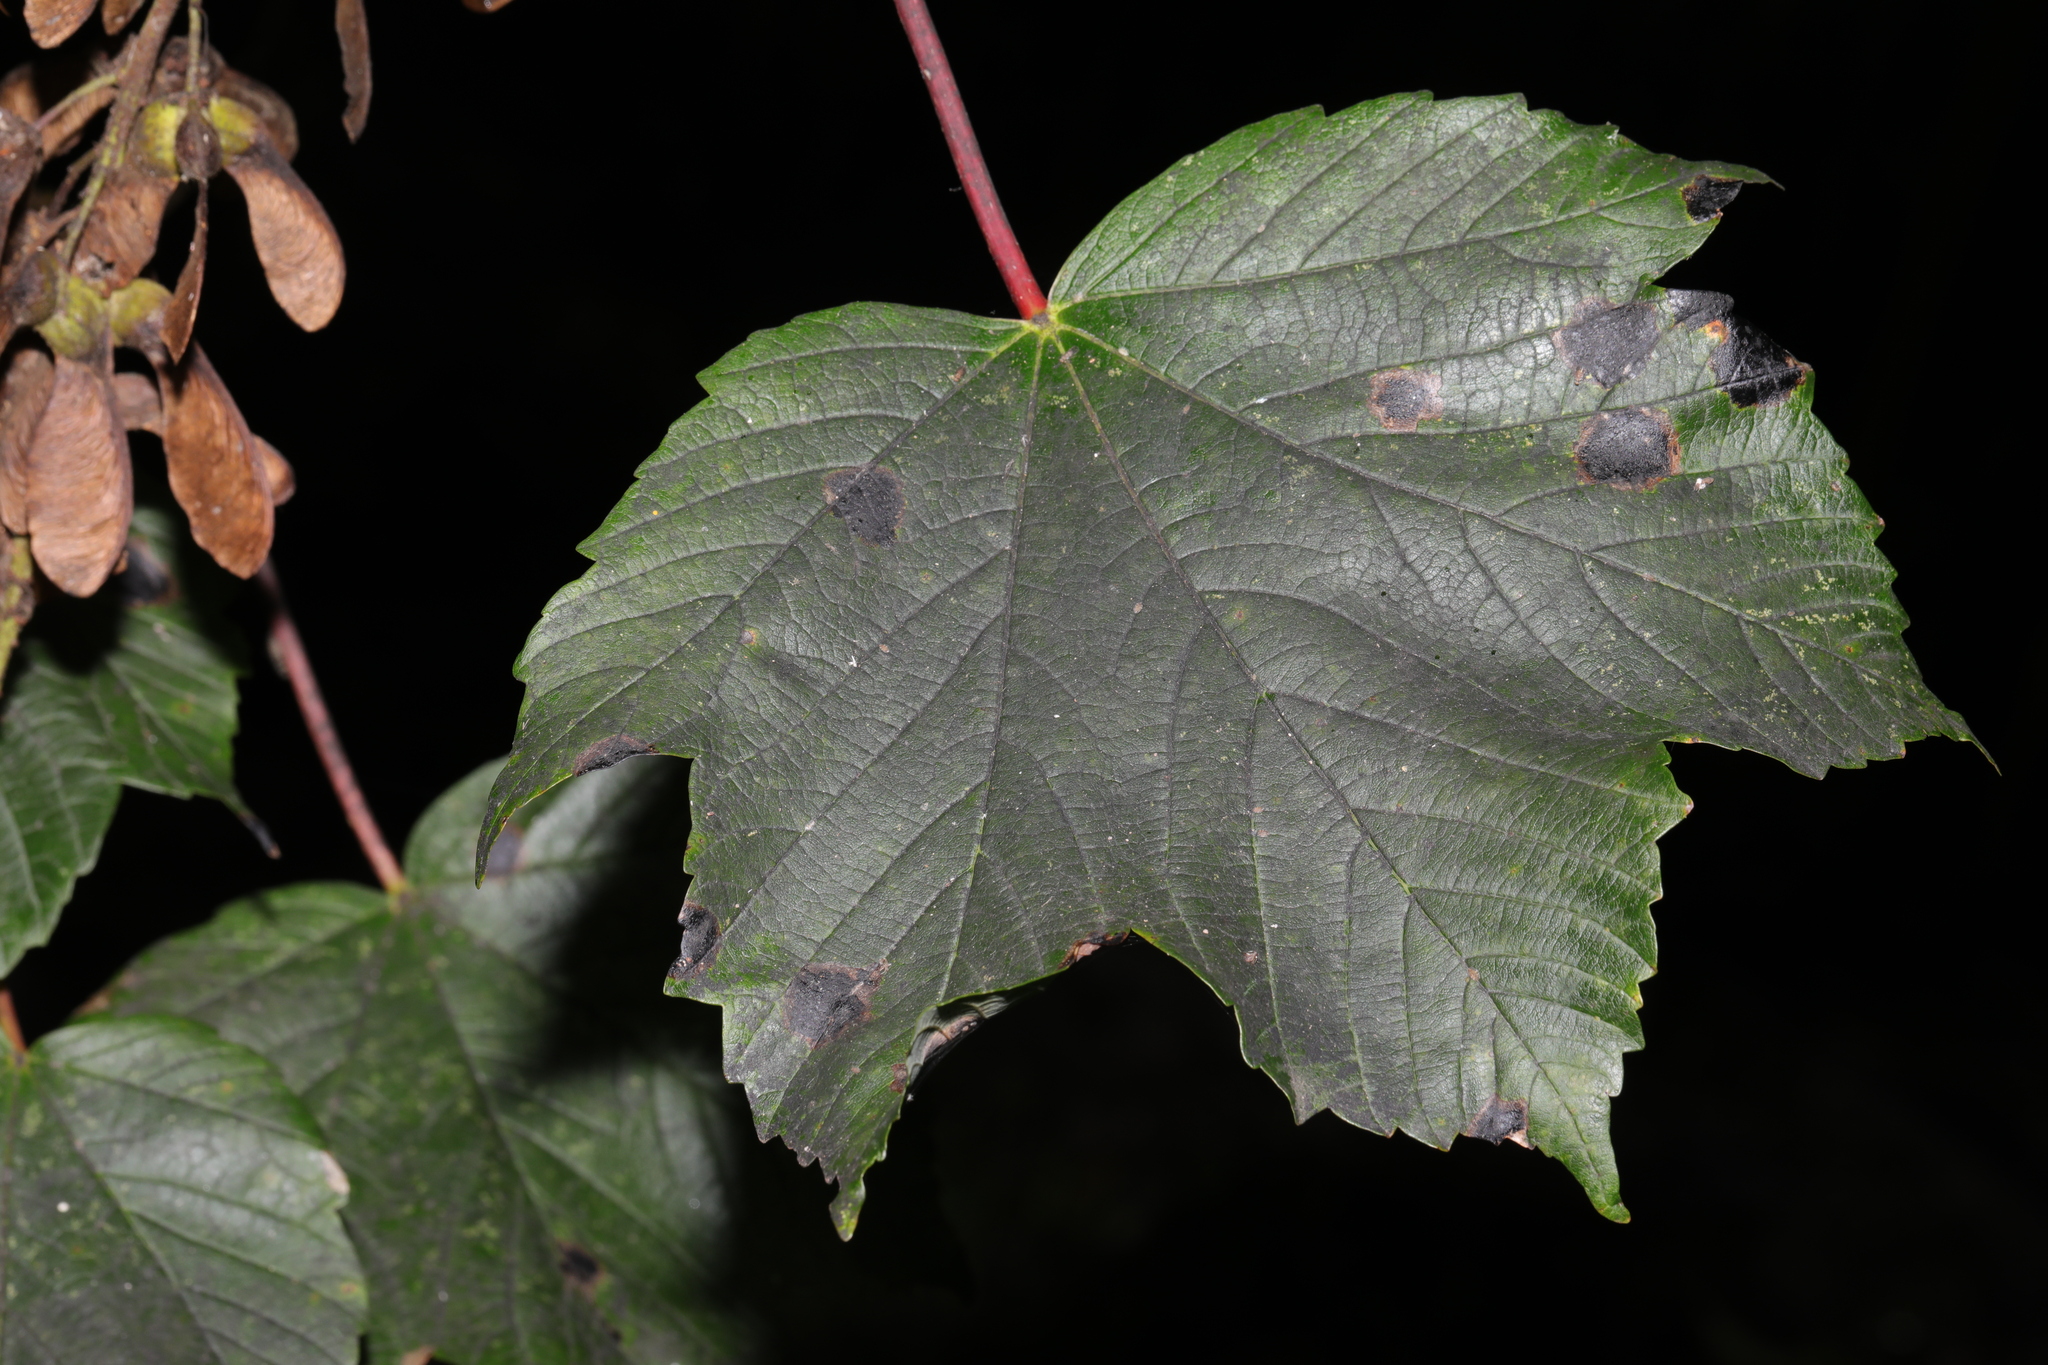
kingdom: Plantae
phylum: Tracheophyta
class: Magnoliopsida
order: Sapindales
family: Sapindaceae
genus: Acer
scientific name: Acer pseudoplatanus
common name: Sycamore
